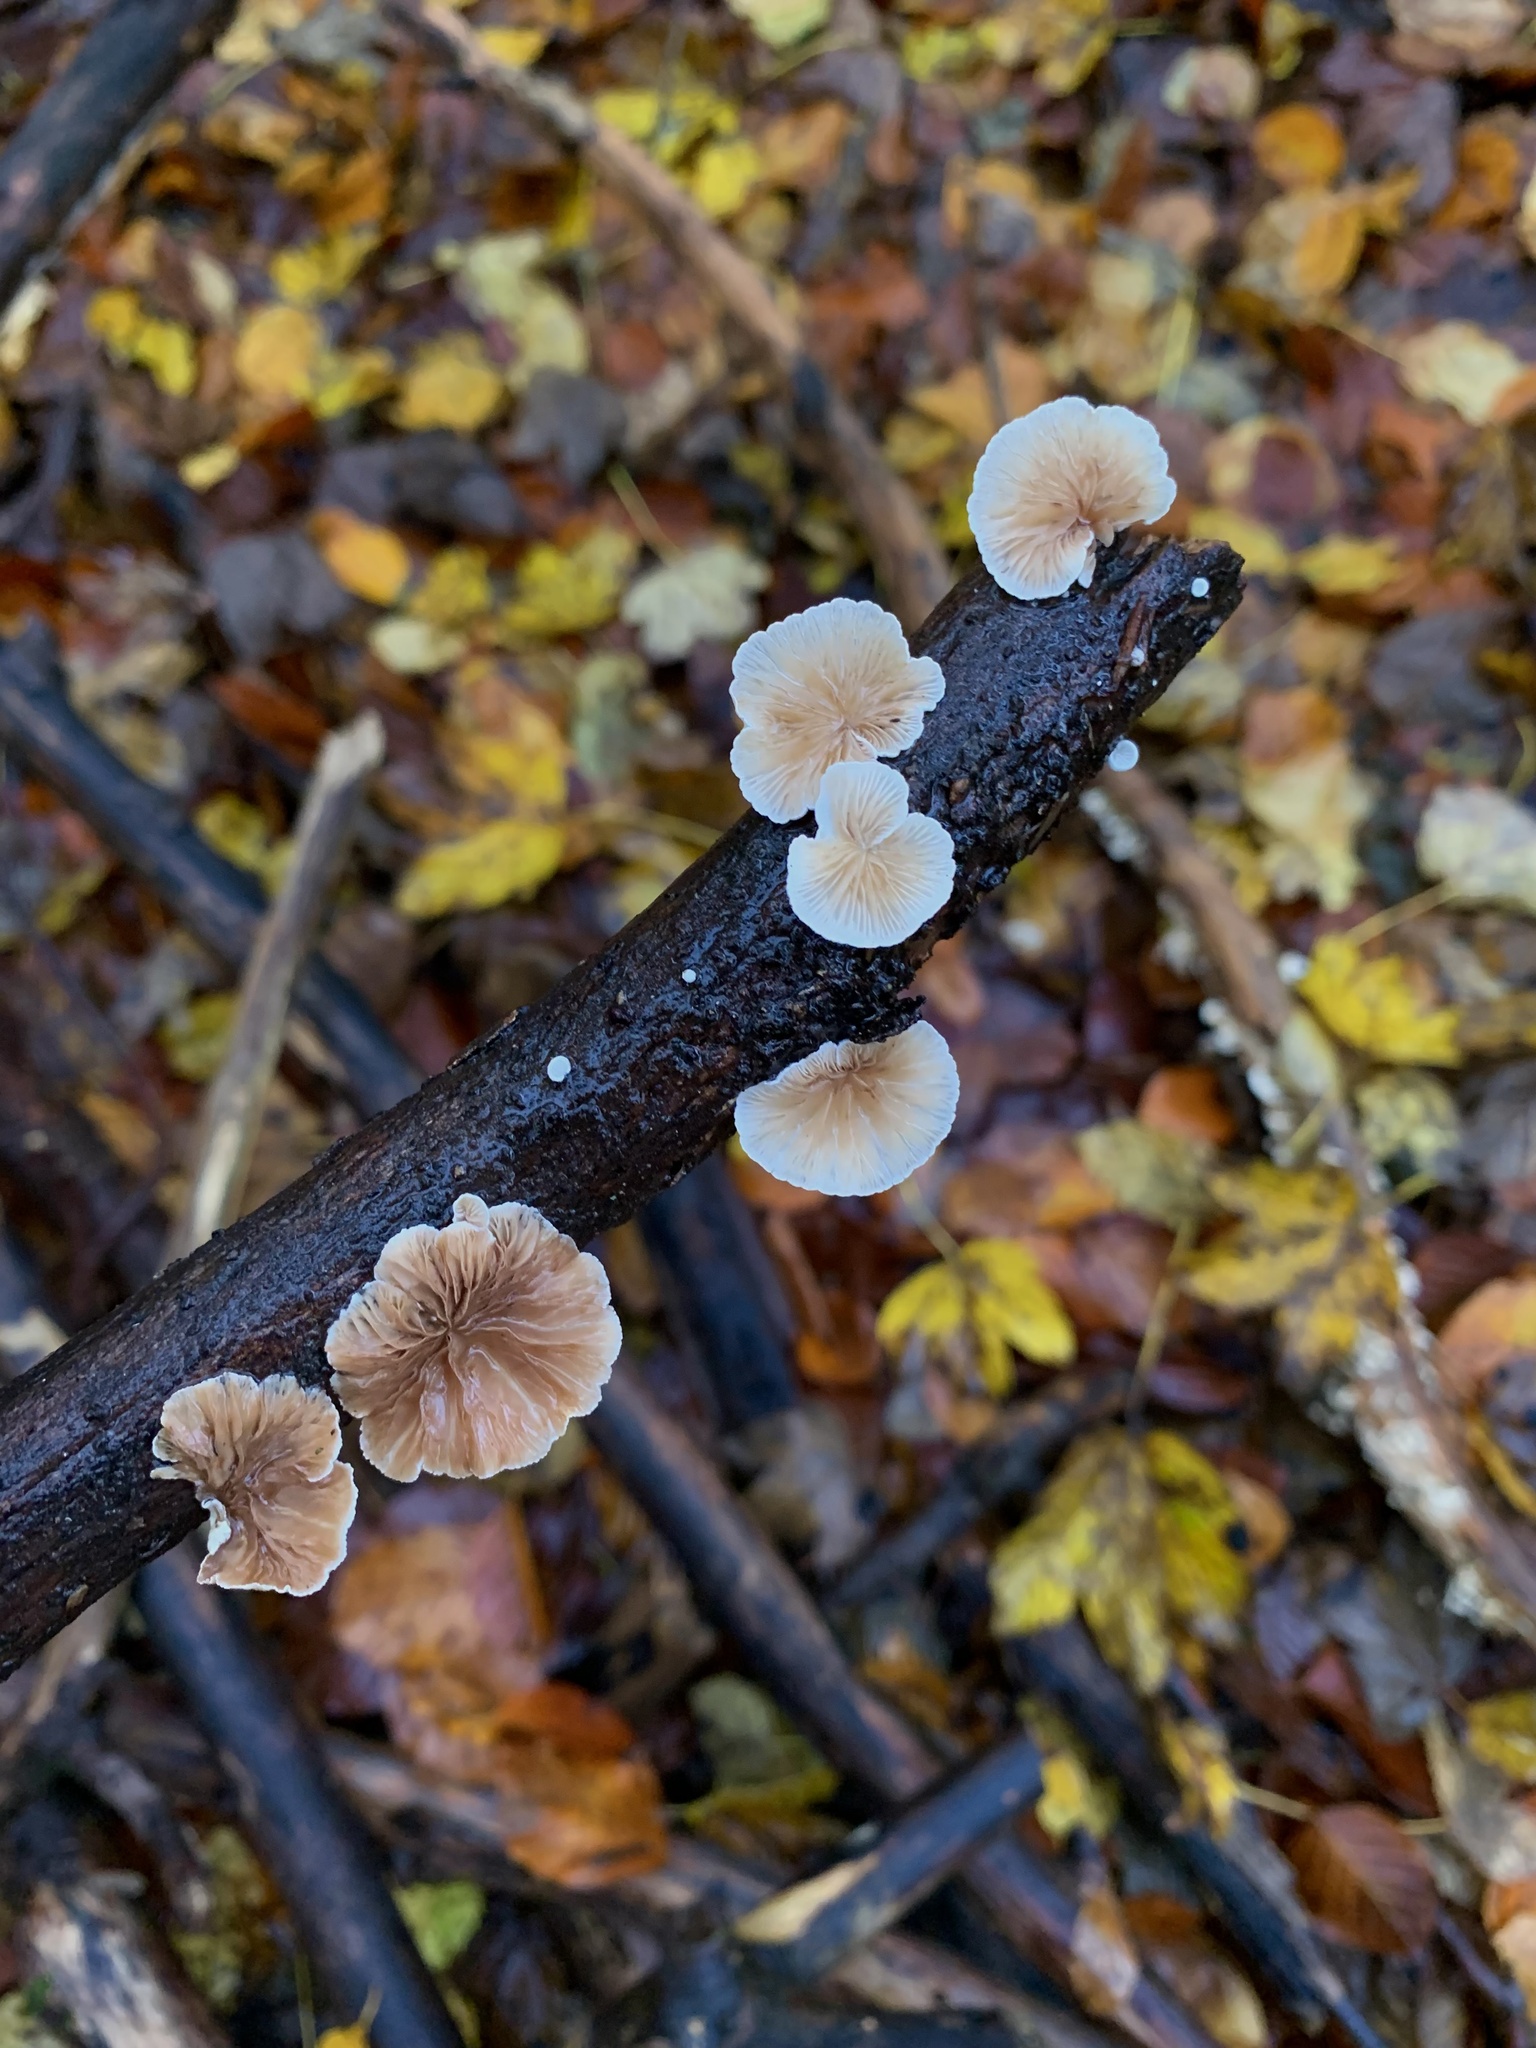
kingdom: Fungi
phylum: Basidiomycota
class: Agaricomycetes
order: Agaricales
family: Crepidotaceae
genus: Crepidotus
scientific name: Crepidotus variabilis
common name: Variable oysterling
